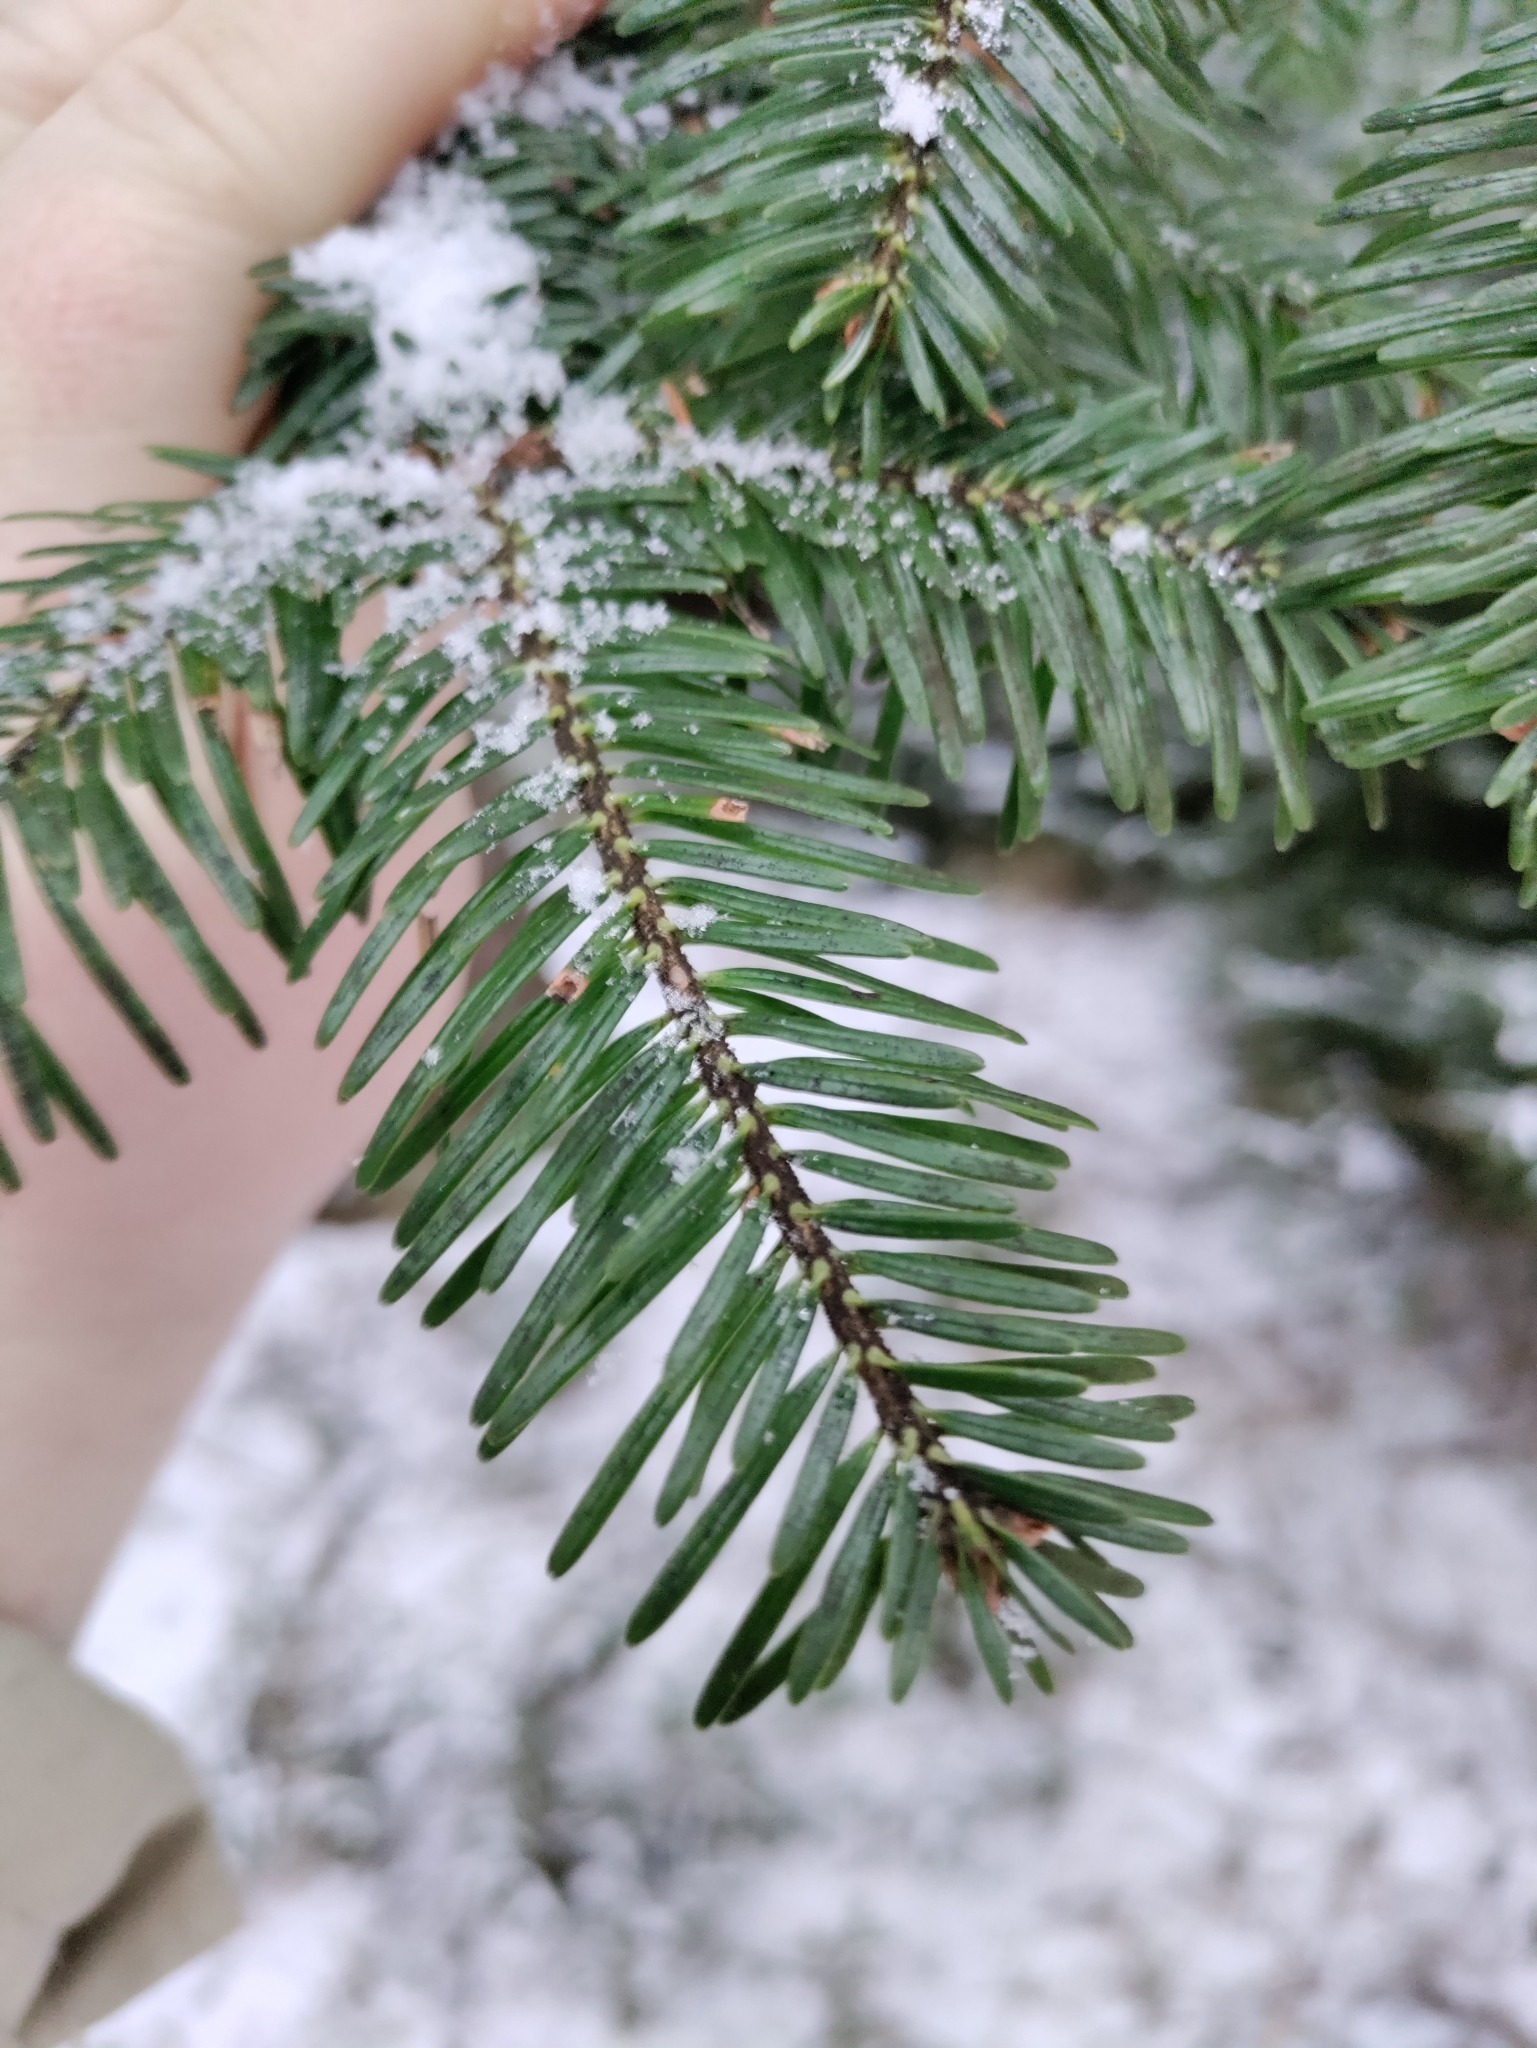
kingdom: Plantae
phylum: Tracheophyta
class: Pinopsida
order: Pinales
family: Pinaceae
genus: Abies
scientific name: Abies alba
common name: Silver fir
